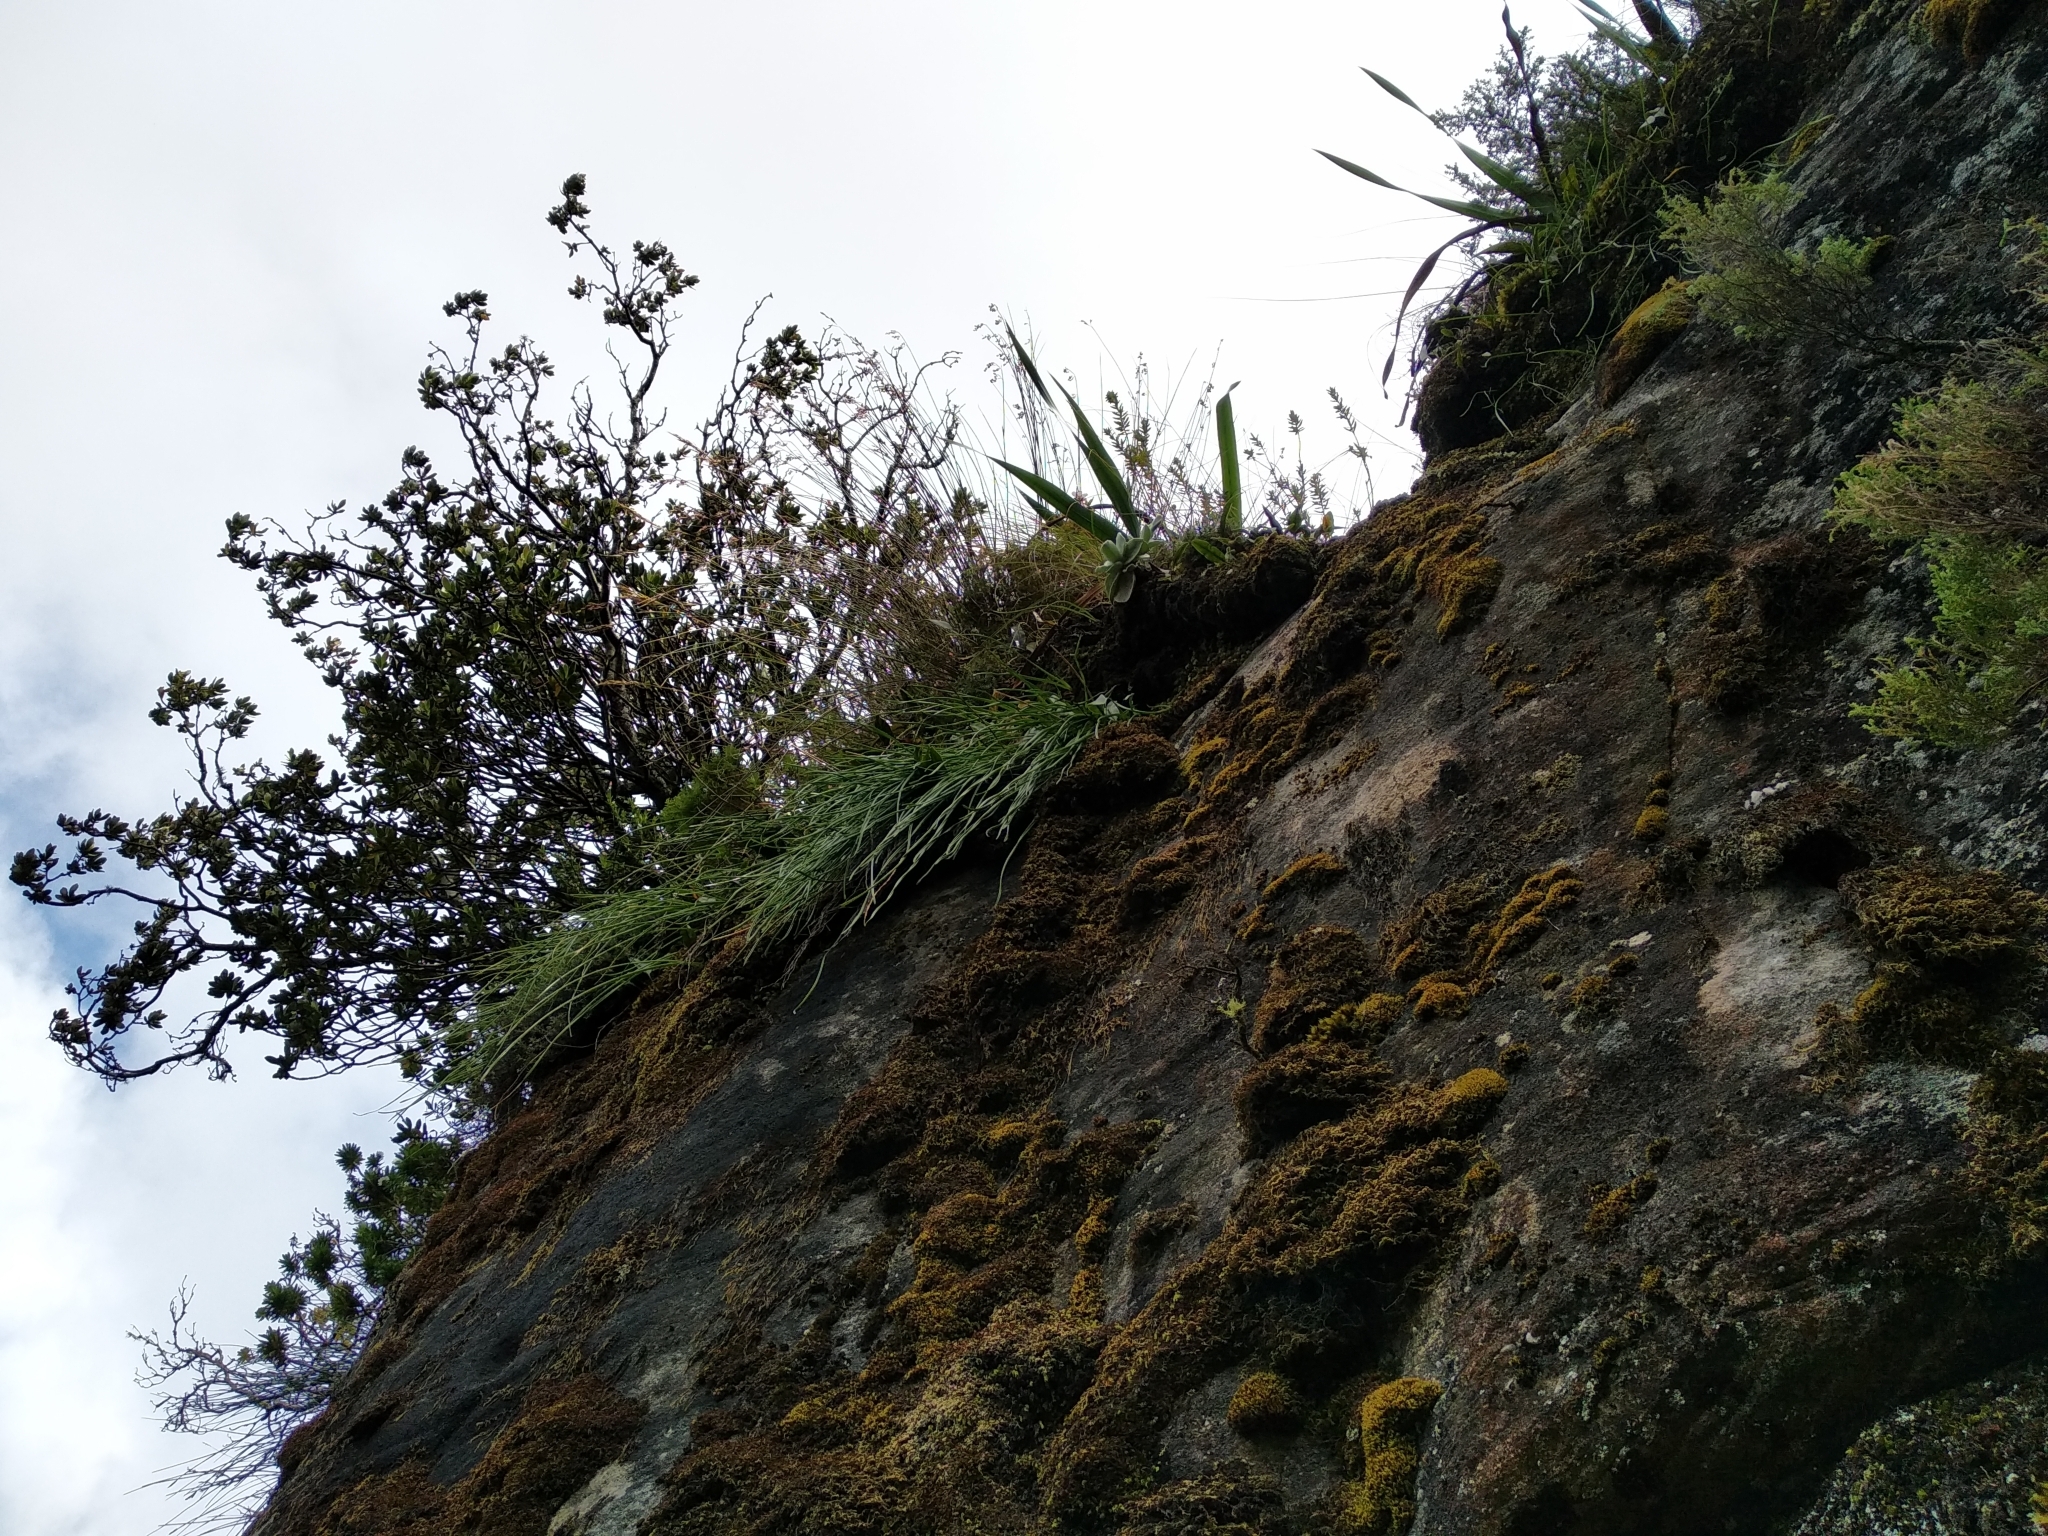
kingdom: Plantae
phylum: Tracheophyta
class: Liliopsida
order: Asparagales
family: Asphodelaceae
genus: Trachyandra
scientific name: Trachyandra tabularis
